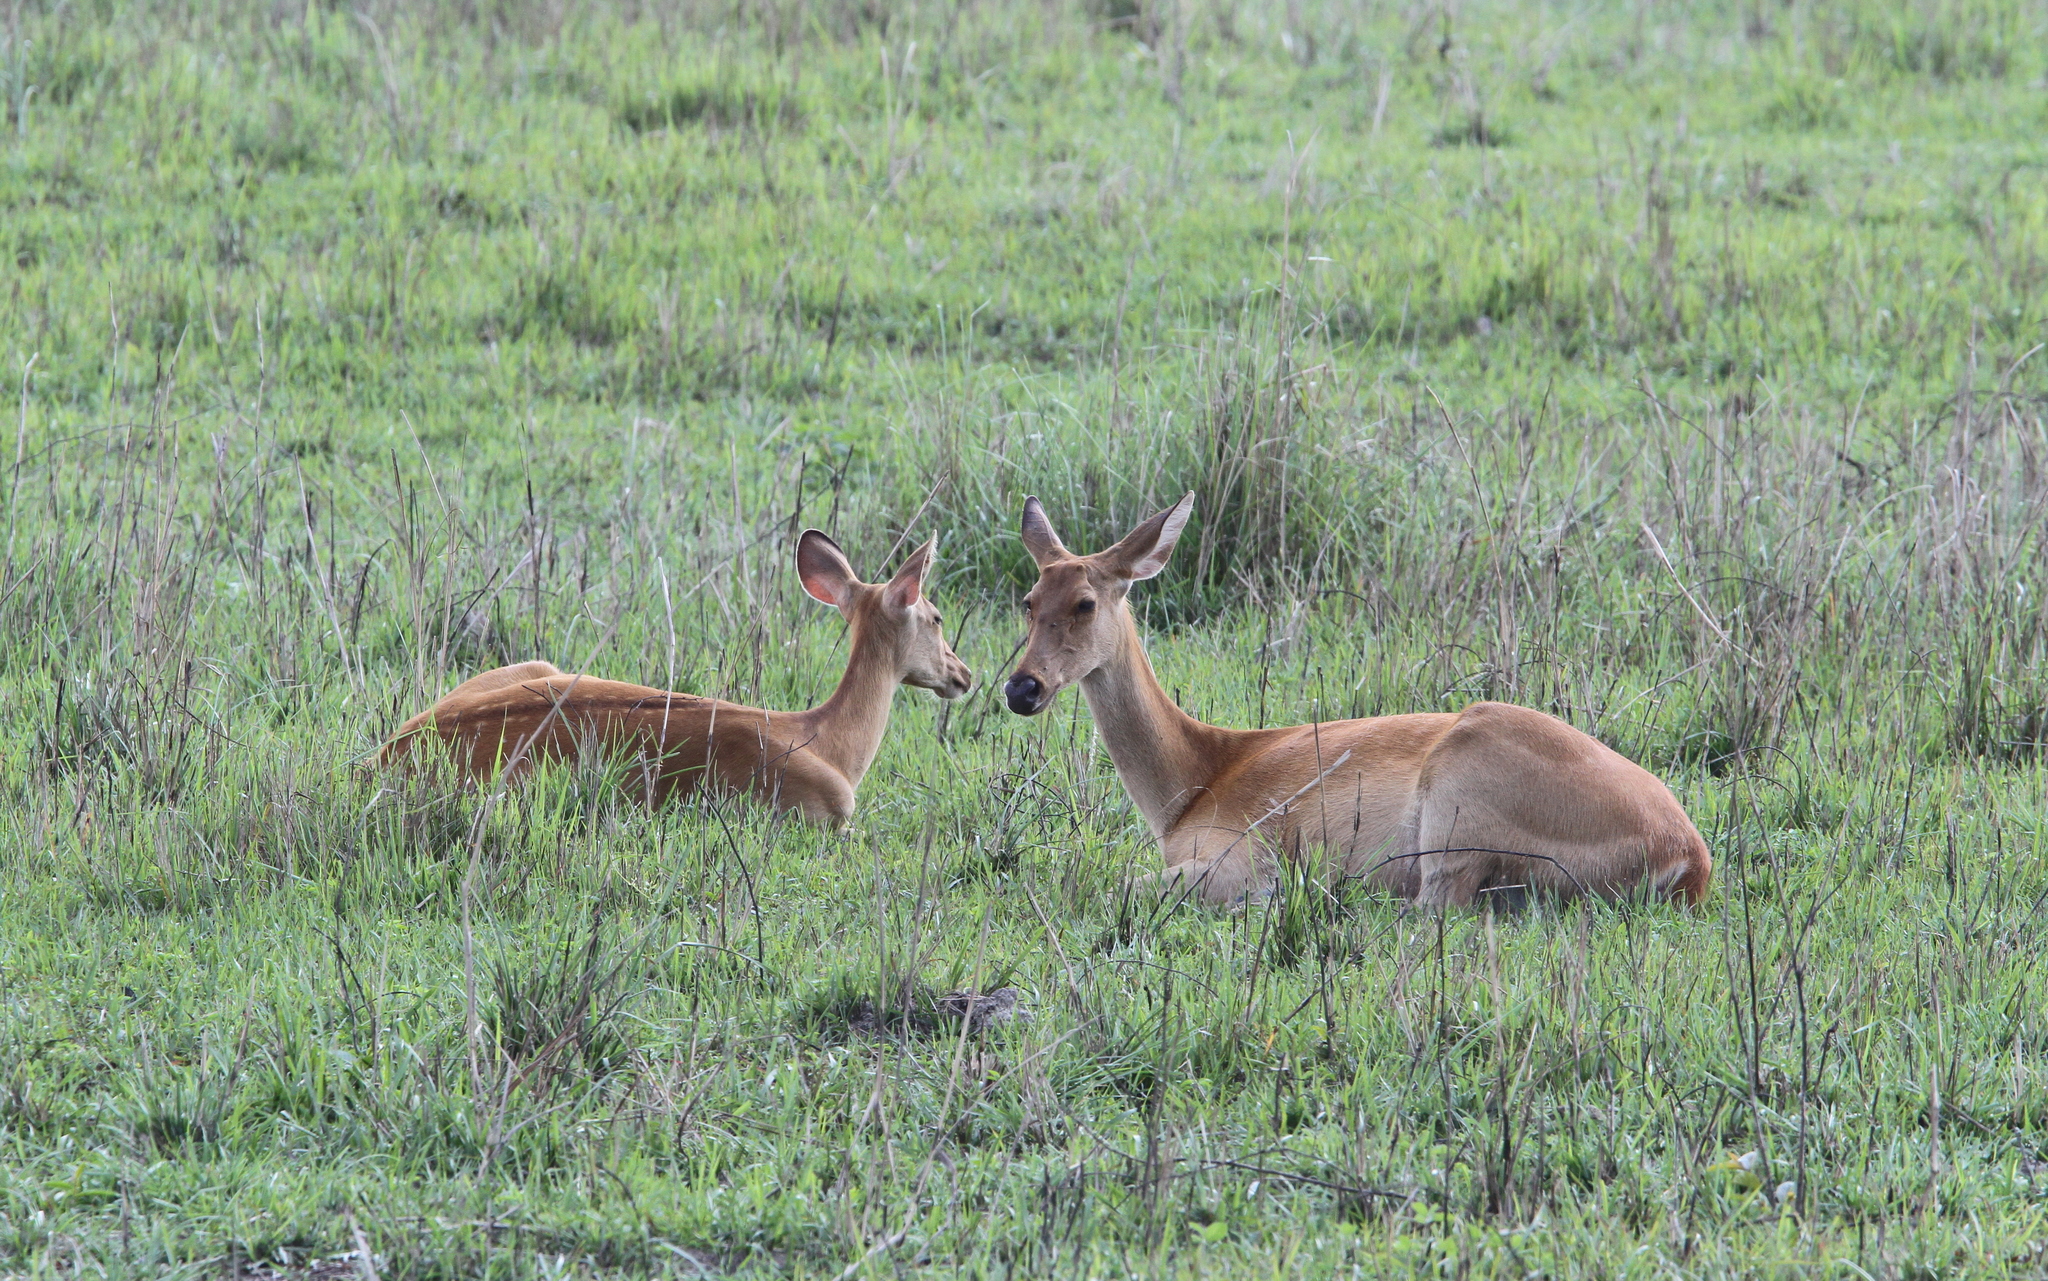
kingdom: Animalia
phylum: Chordata
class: Mammalia
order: Artiodactyla
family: Cervidae
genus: Rucervus
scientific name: Rucervus duvaucelii
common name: Barasingha
